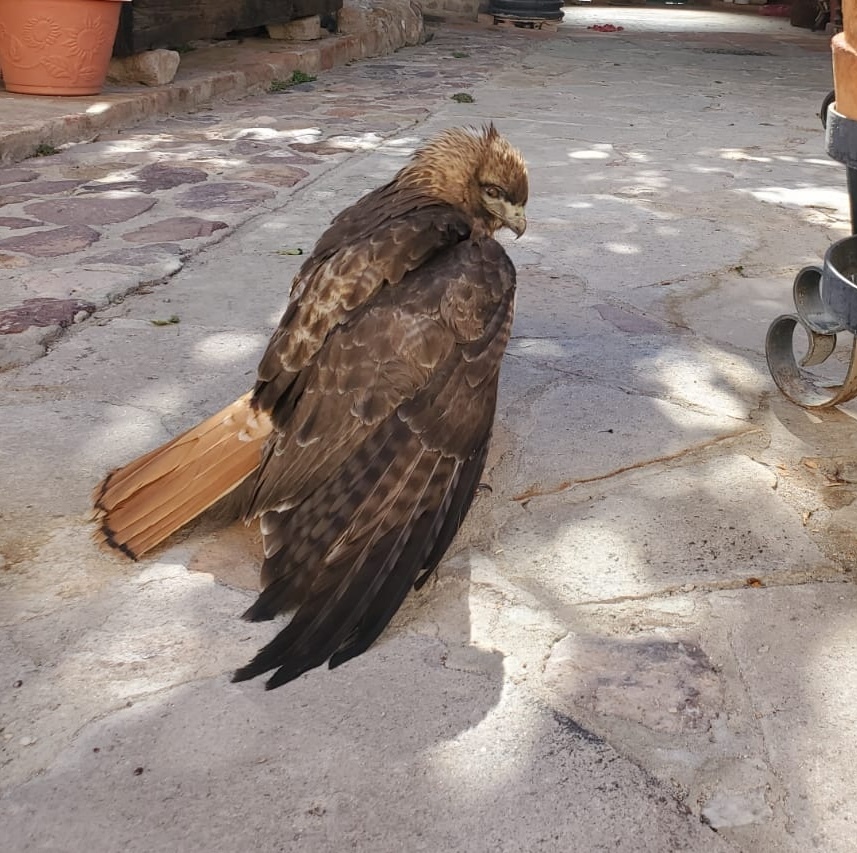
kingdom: Animalia
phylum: Chordata
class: Aves
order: Accipitriformes
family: Accipitridae
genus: Buteo
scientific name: Buteo jamaicensis
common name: Red-tailed hawk
